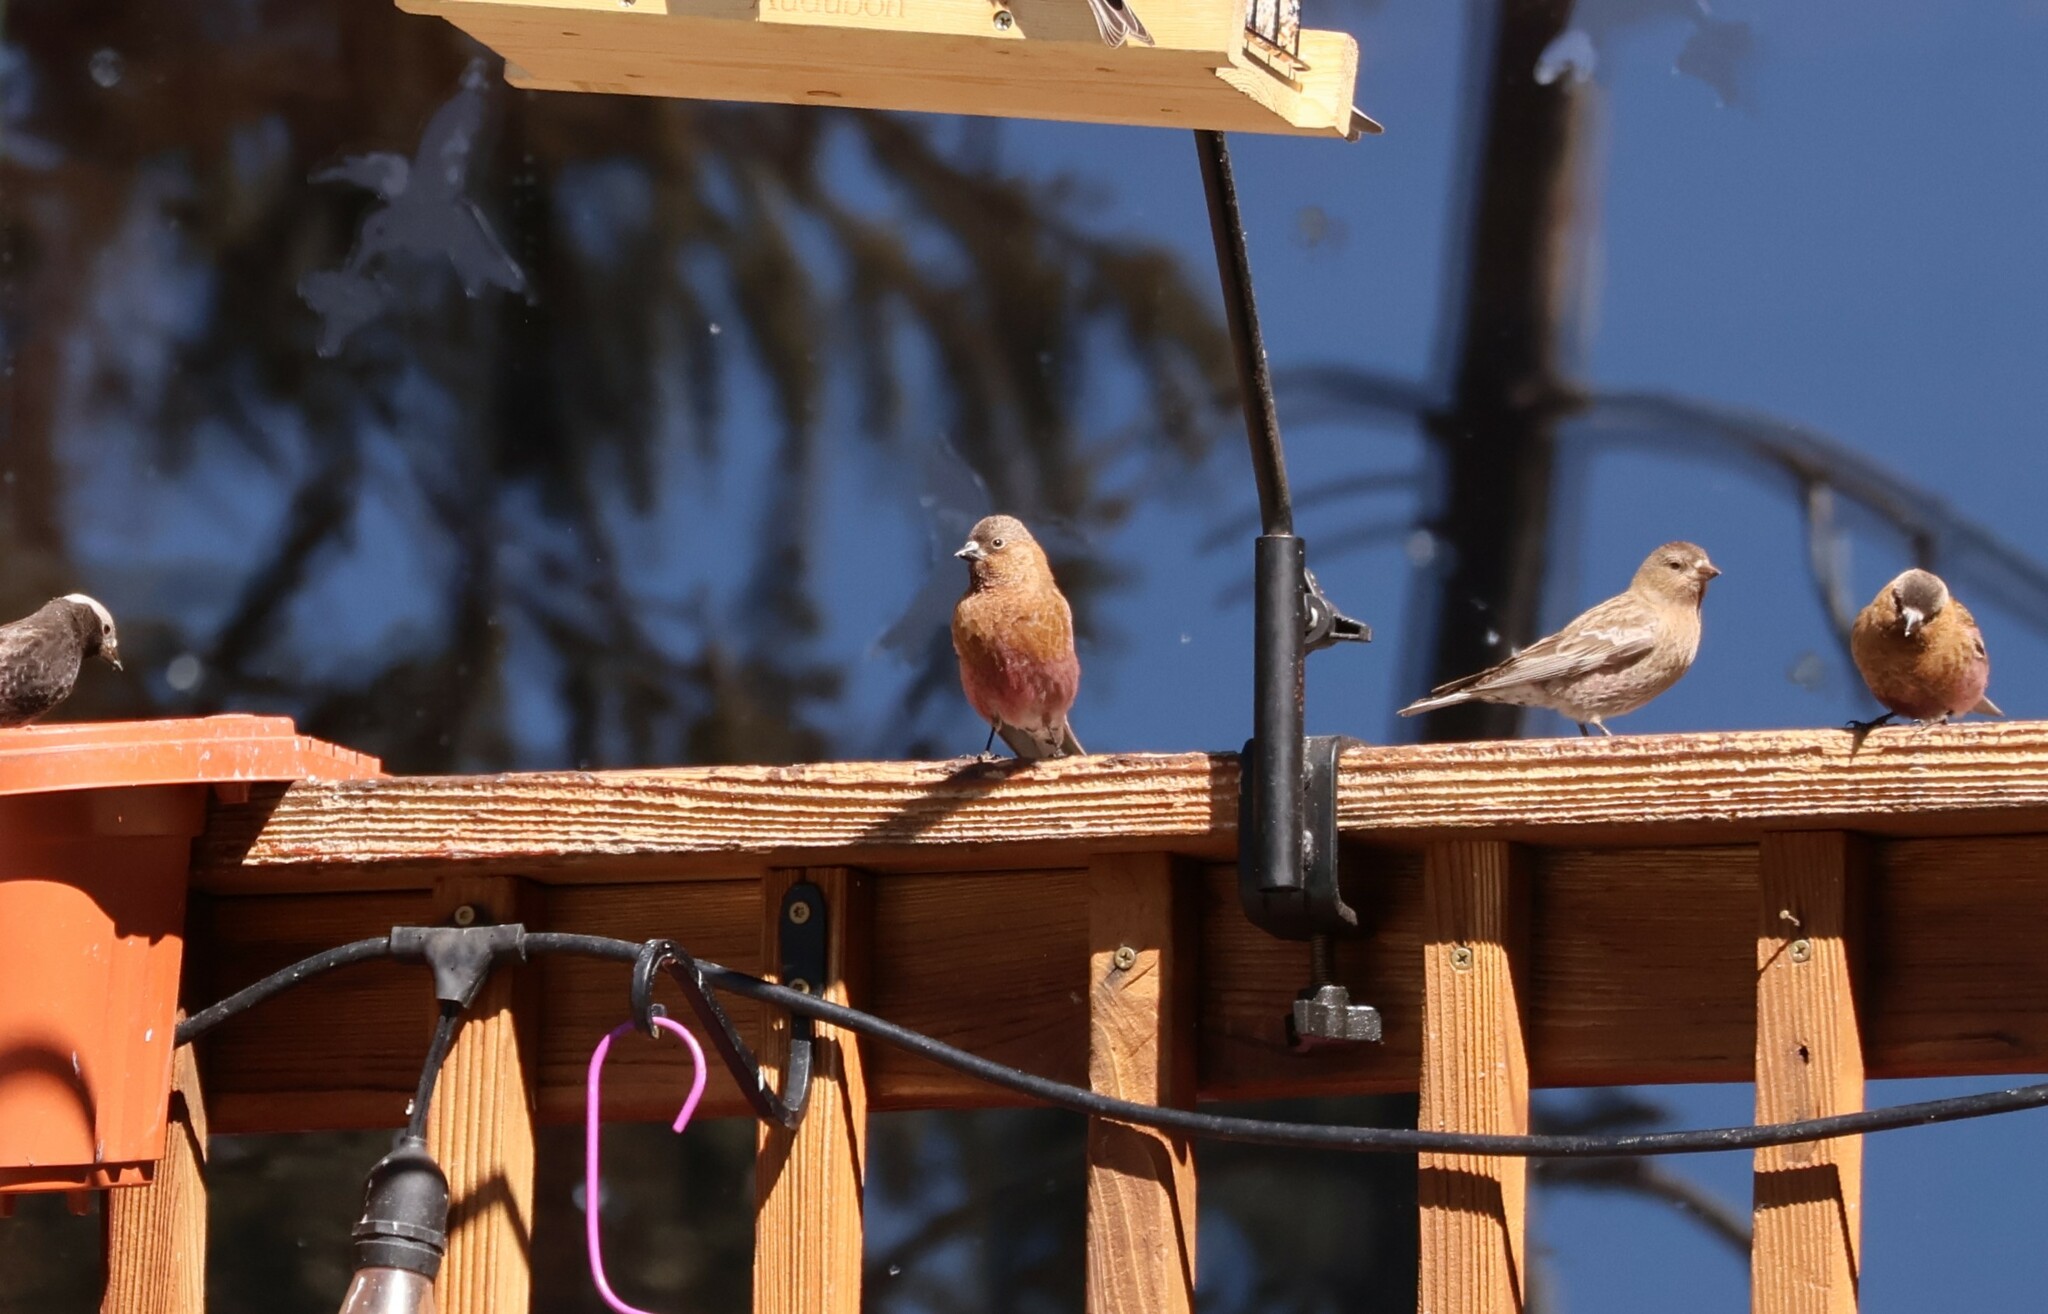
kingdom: Animalia
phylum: Chordata
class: Aves
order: Passeriformes
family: Fringillidae
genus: Leucosticte
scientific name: Leucosticte australis
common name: Brown-capped rosy-finch
